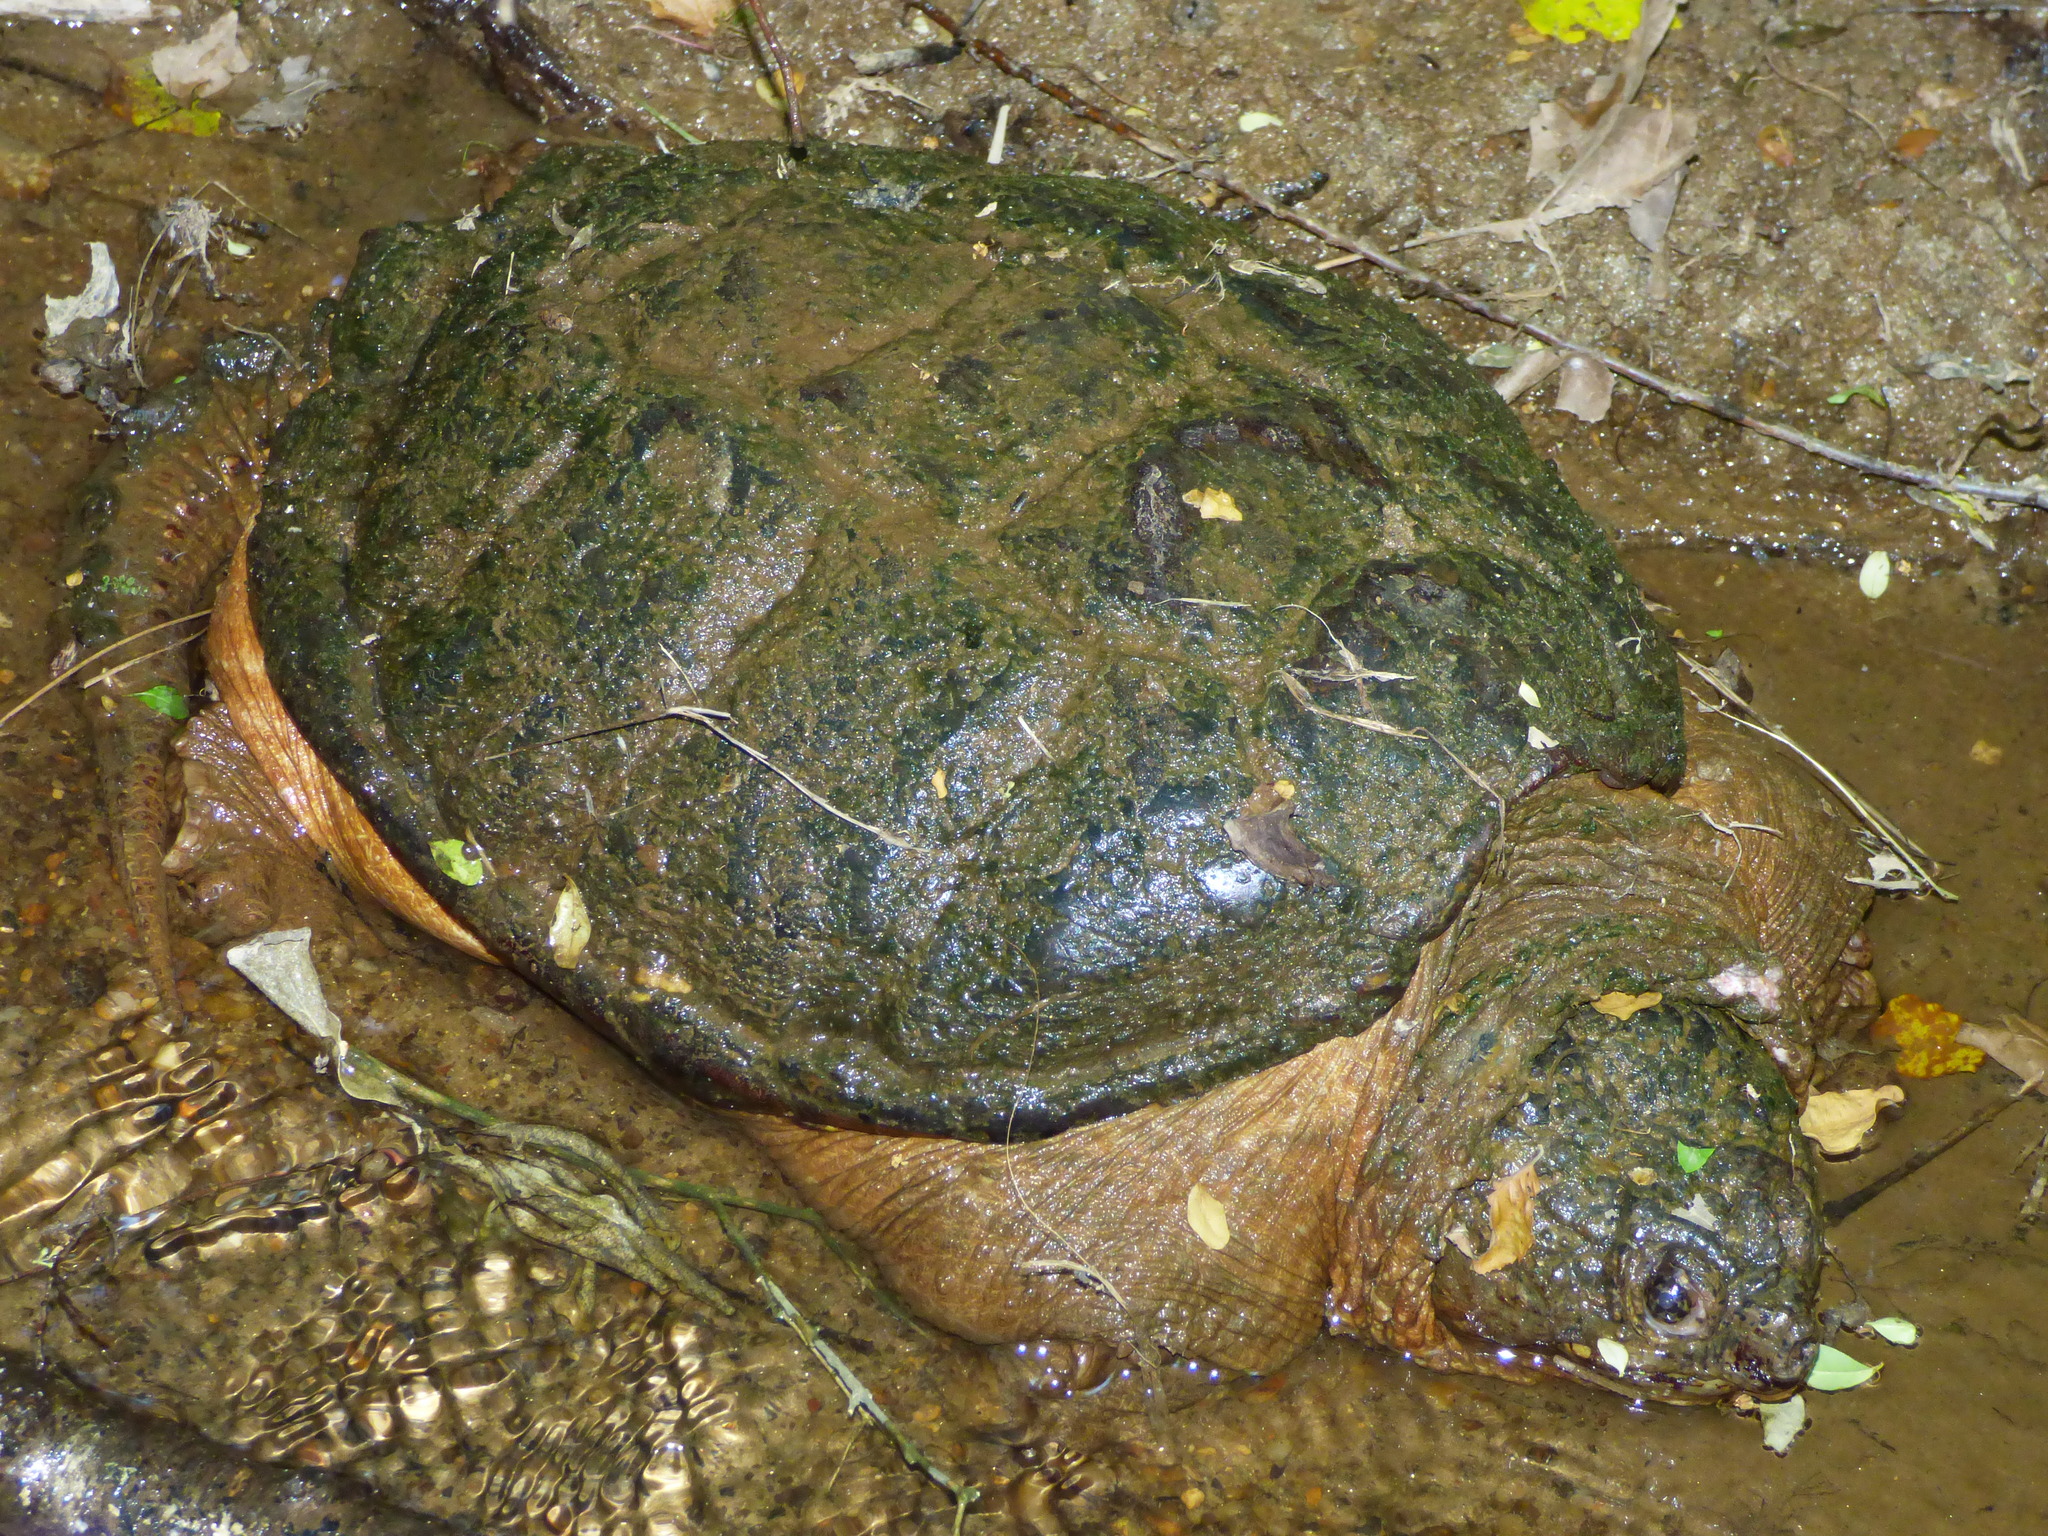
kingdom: Animalia
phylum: Chordata
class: Testudines
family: Chelydridae
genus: Chelydra
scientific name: Chelydra serpentina
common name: Common snapping turtle
